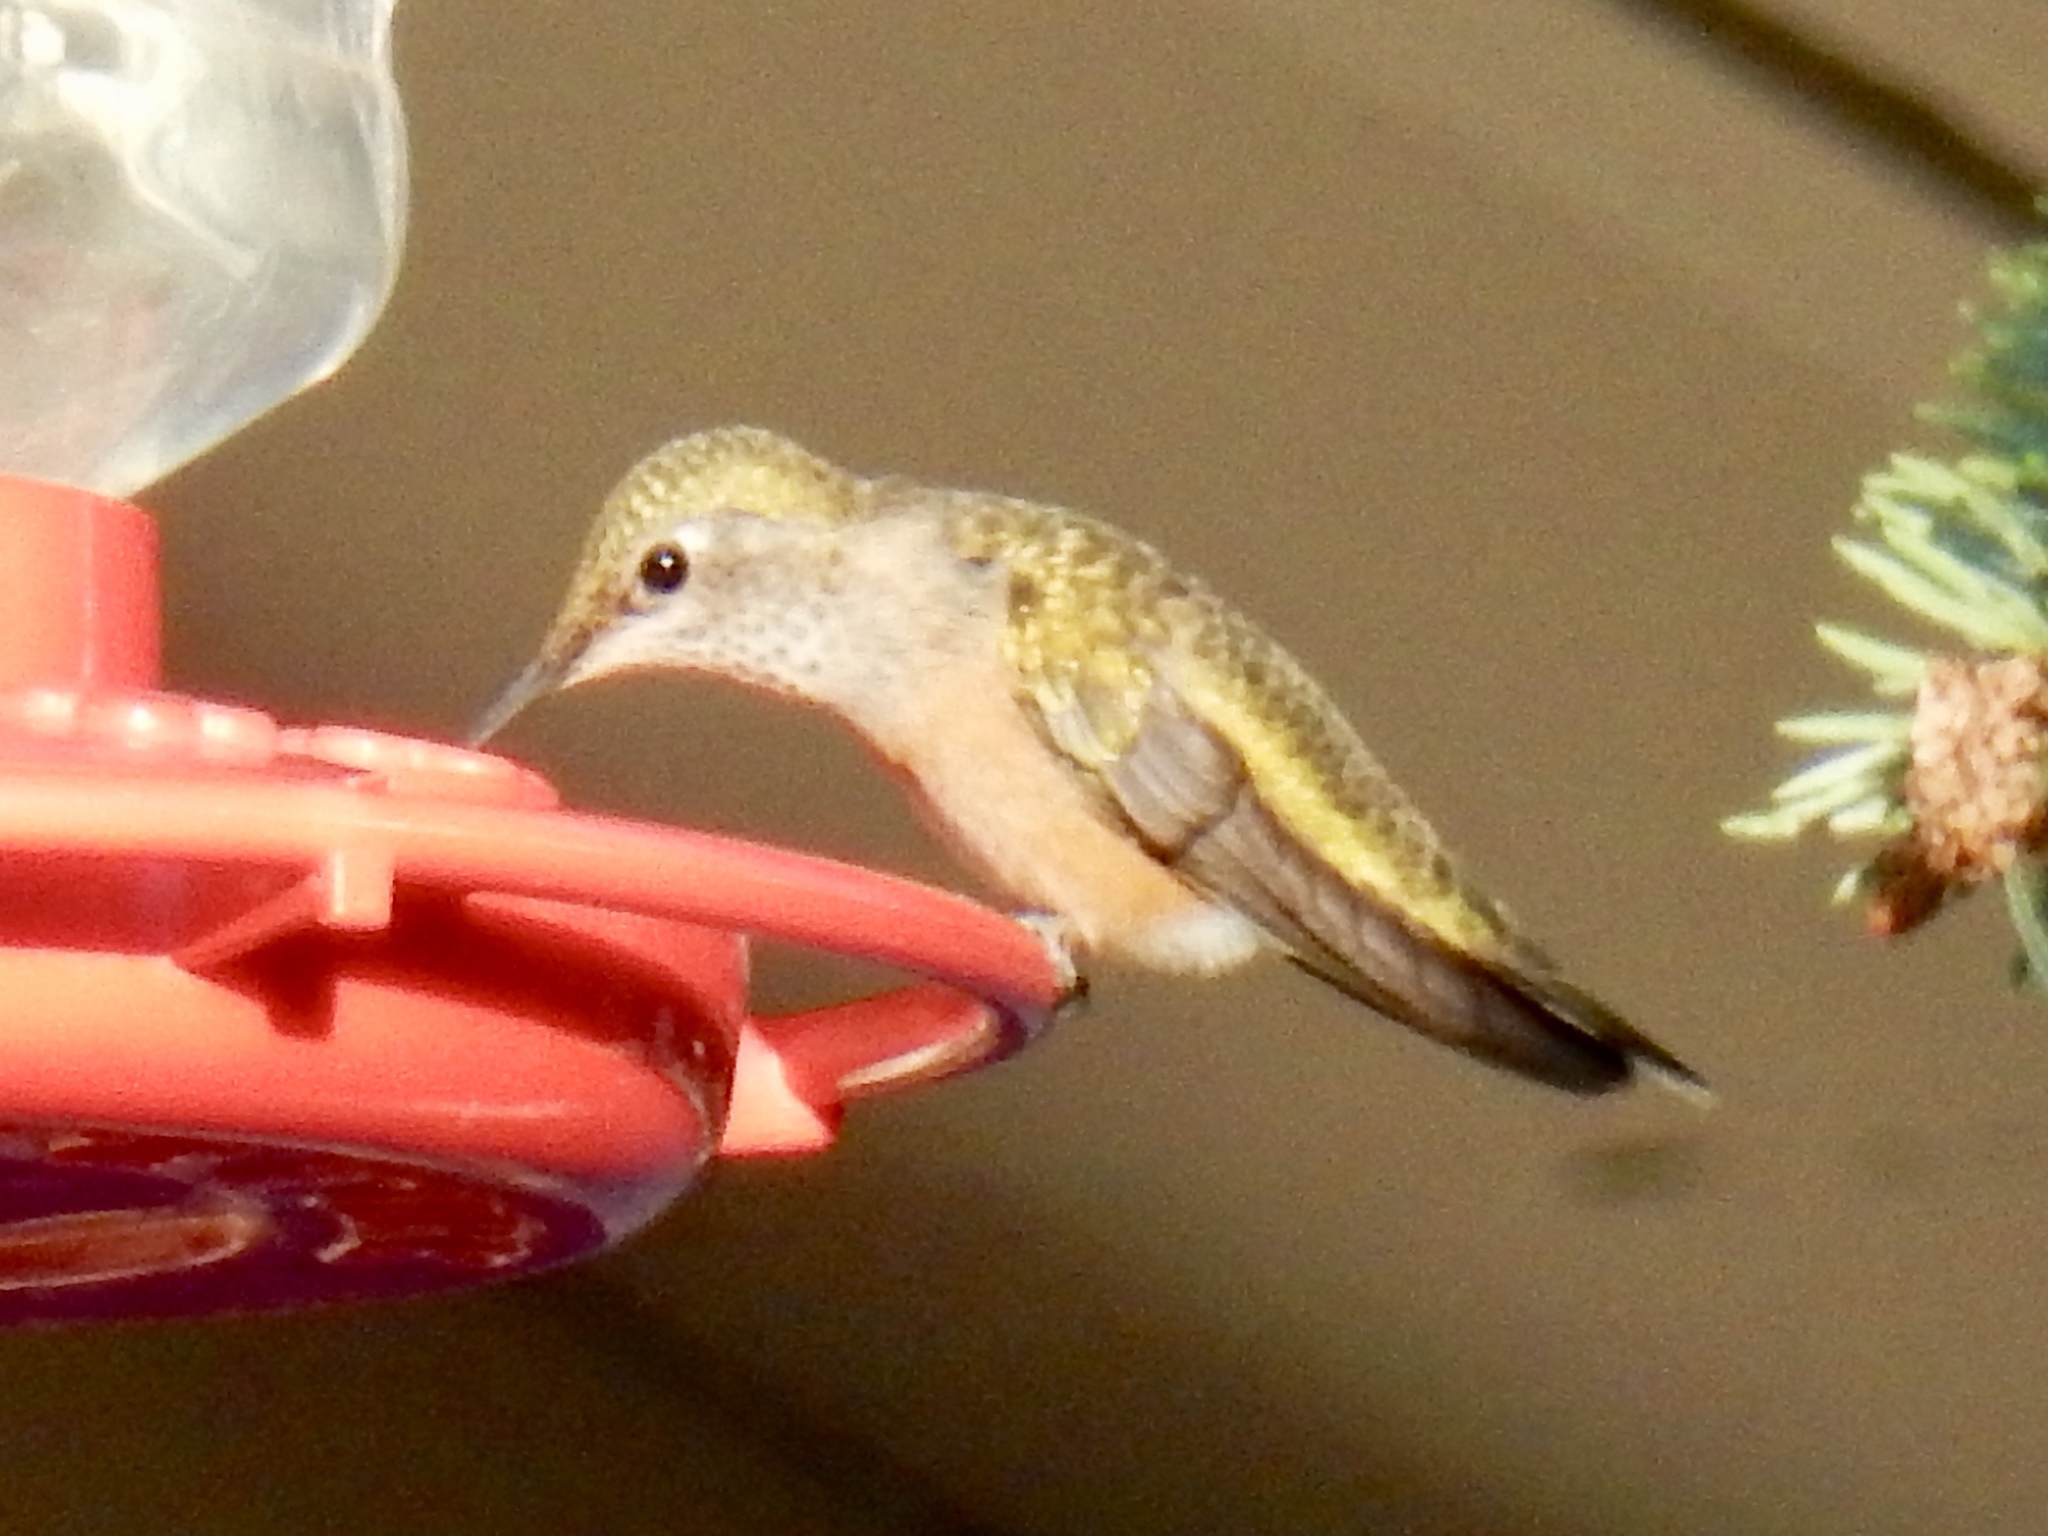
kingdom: Animalia
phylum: Chordata
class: Aves
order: Apodiformes
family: Trochilidae
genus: Selasphorus
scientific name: Selasphorus platycercus
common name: Broad-tailed hummingbird
